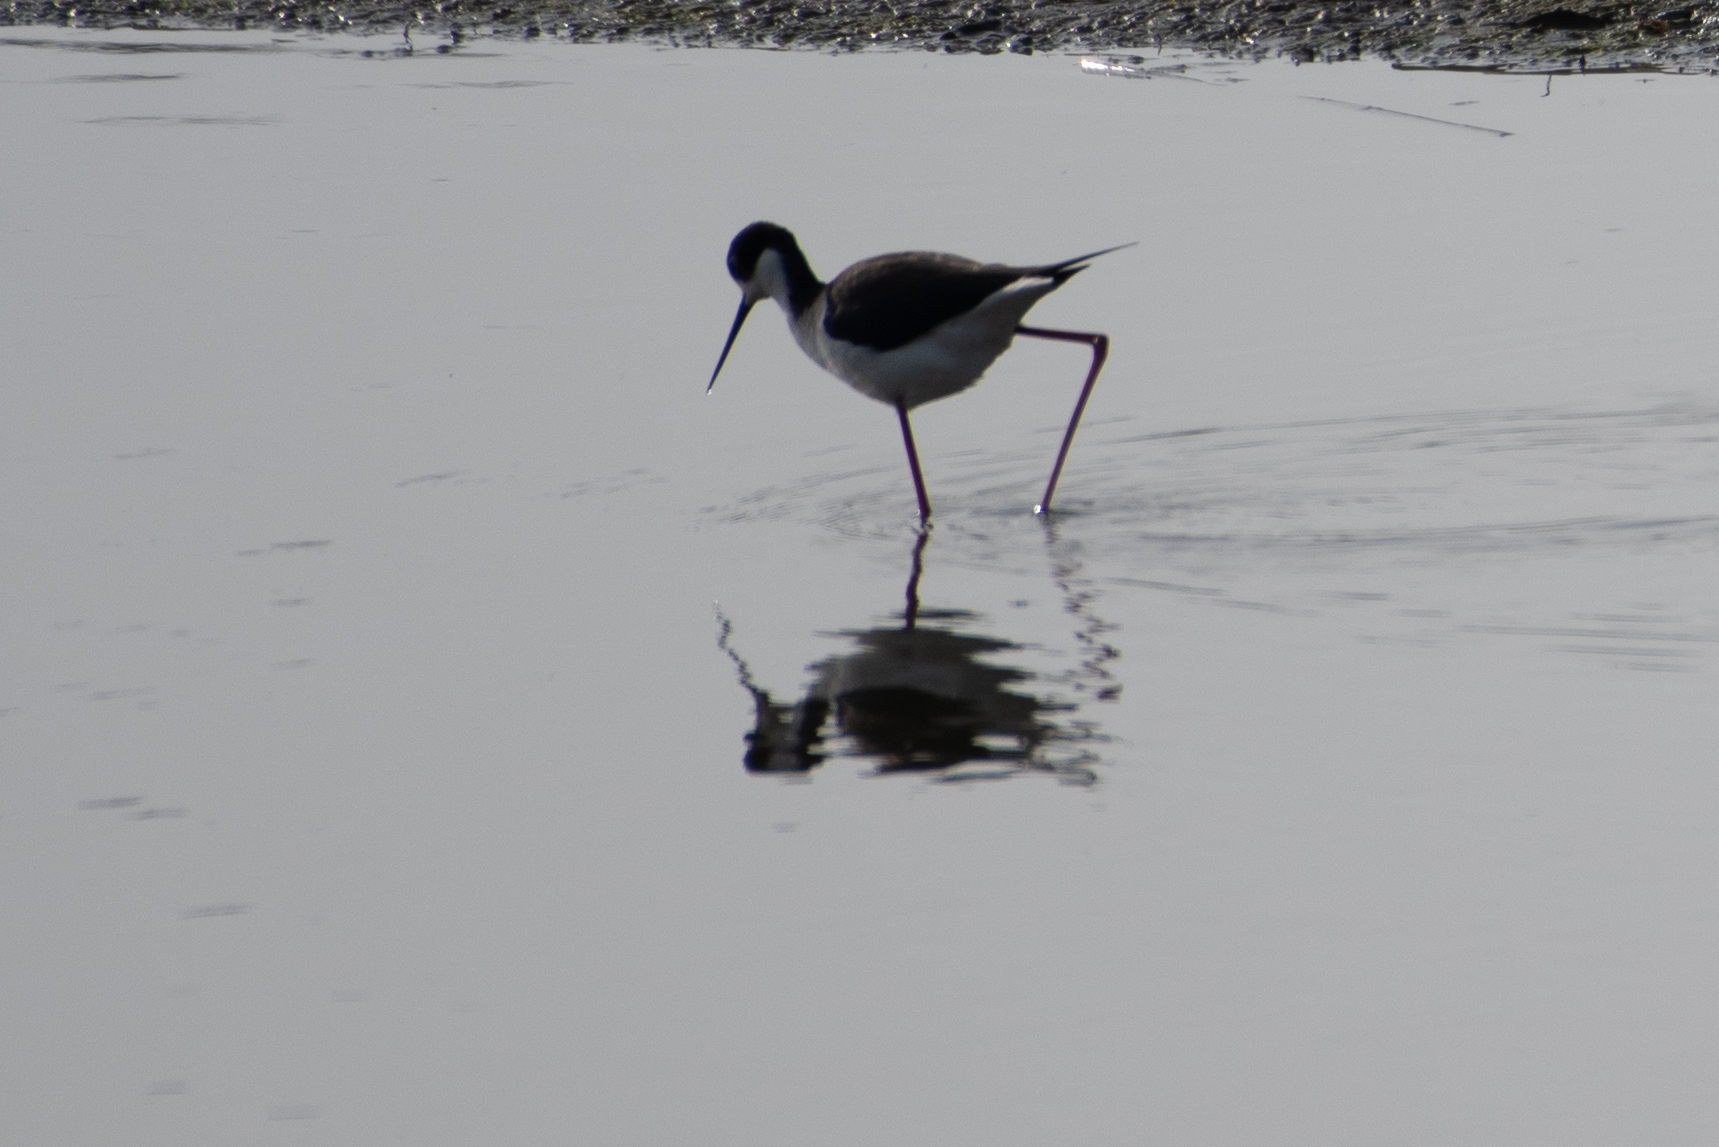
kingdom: Animalia
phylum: Chordata
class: Aves
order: Charadriiformes
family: Recurvirostridae
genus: Himantopus
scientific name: Himantopus mexicanus
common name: Black-necked stilt
